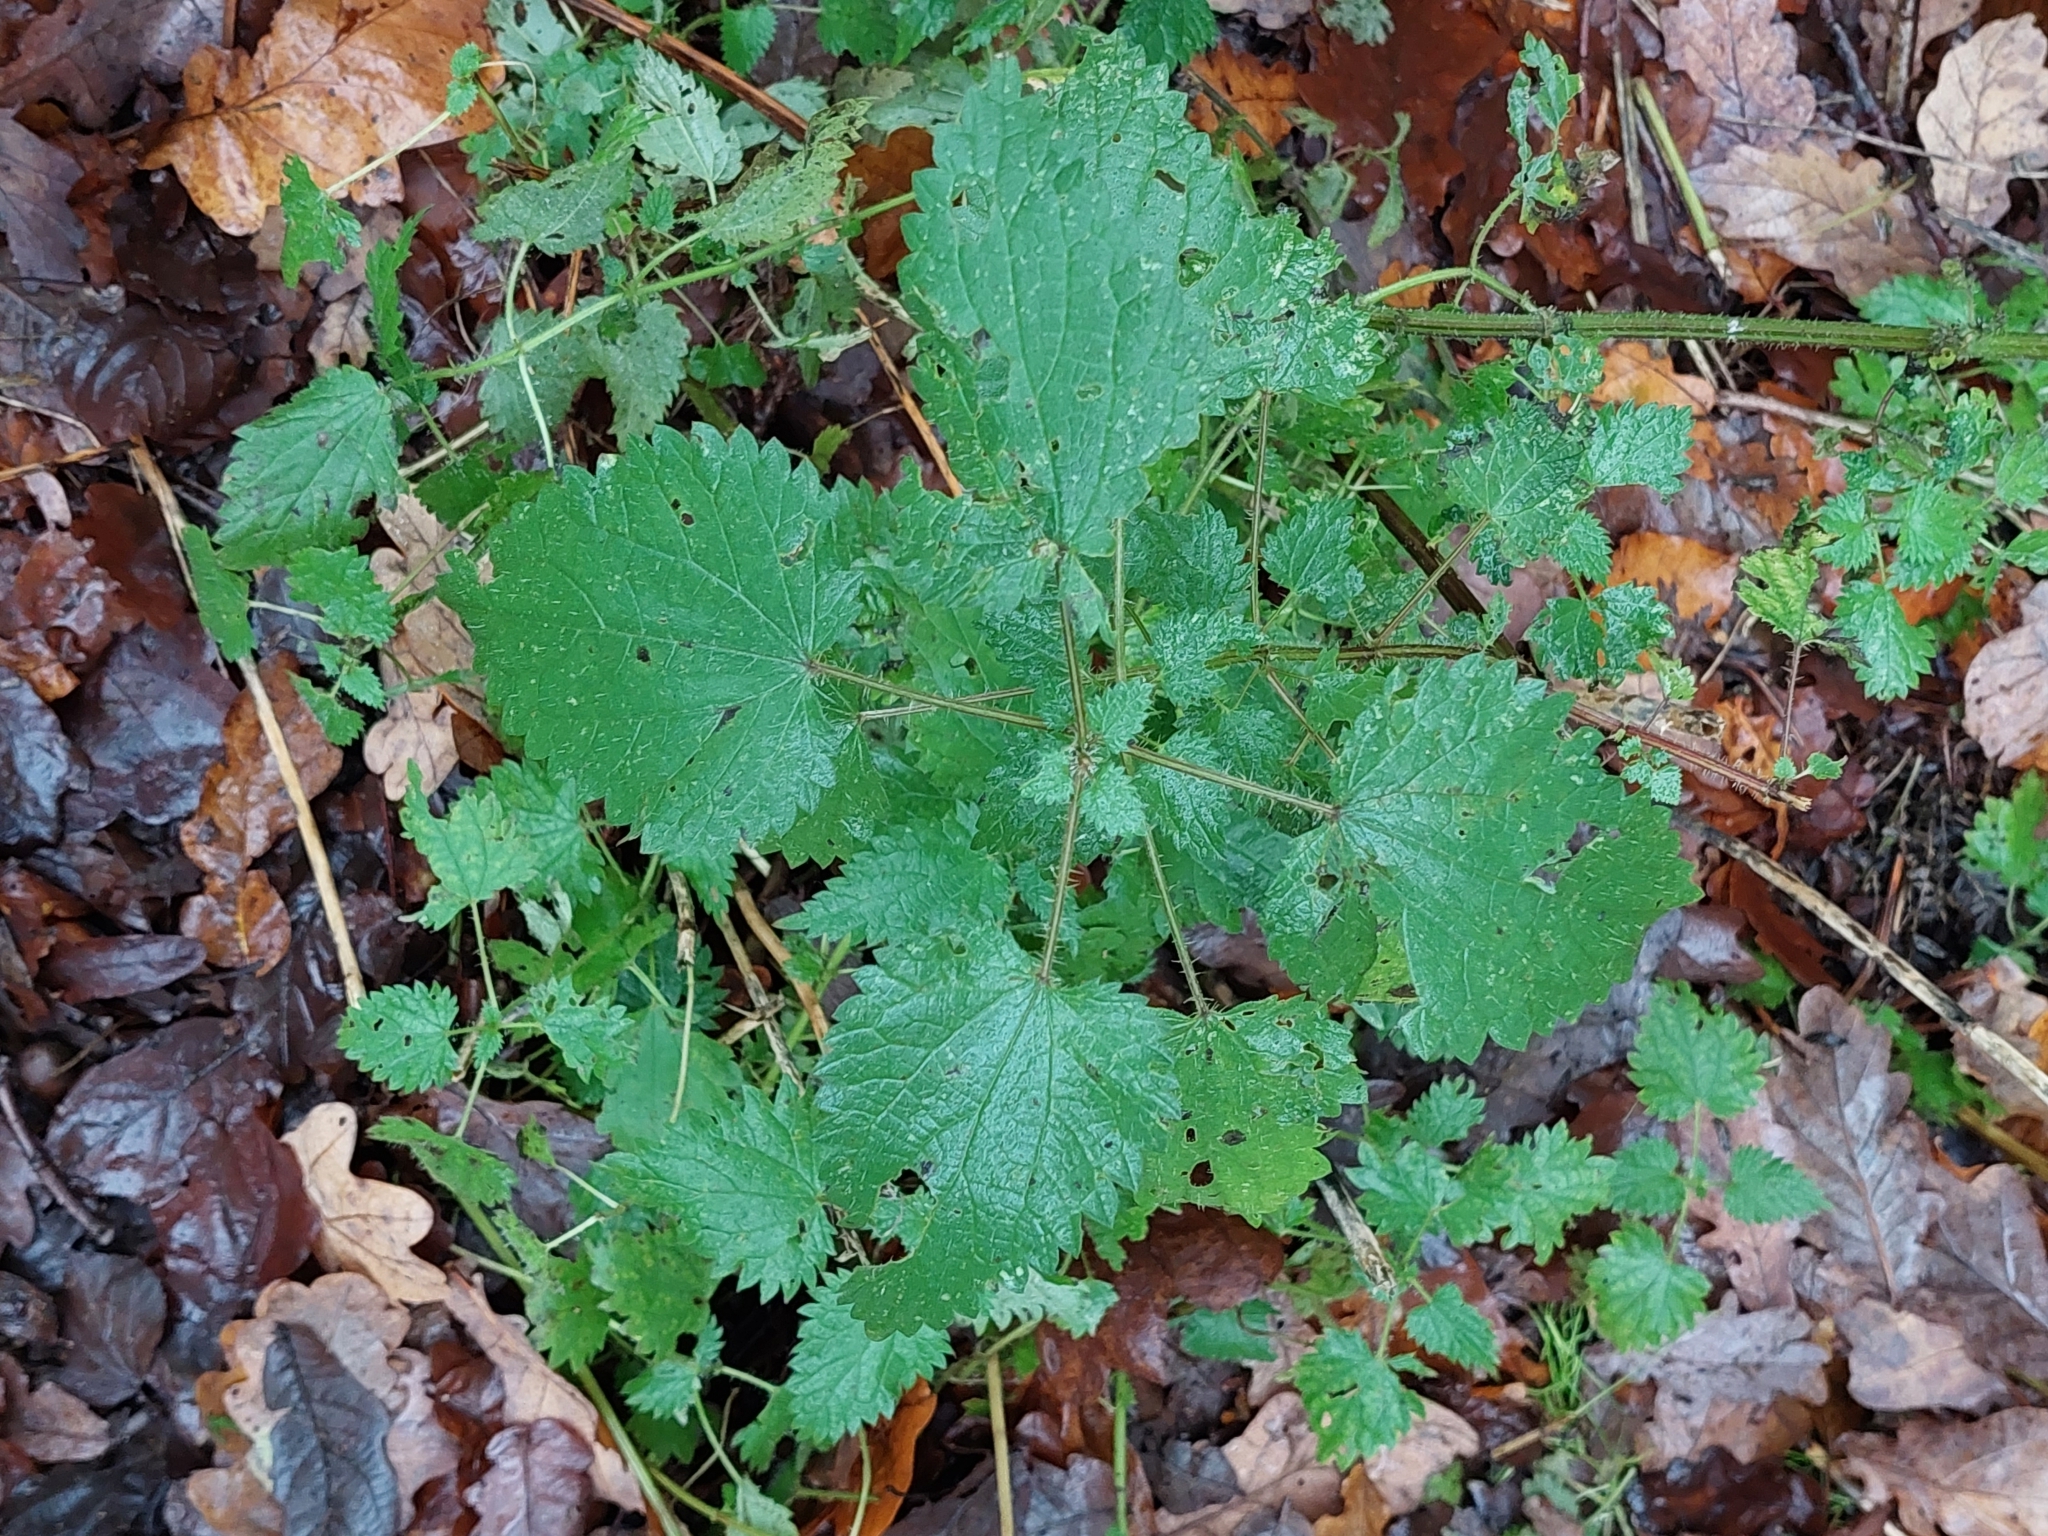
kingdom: Plantae
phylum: Tracheophyta
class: Magnoliopsida
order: Rosales
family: Urticaceae
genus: Urtica
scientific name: Urtica dioica
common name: Common nettle
